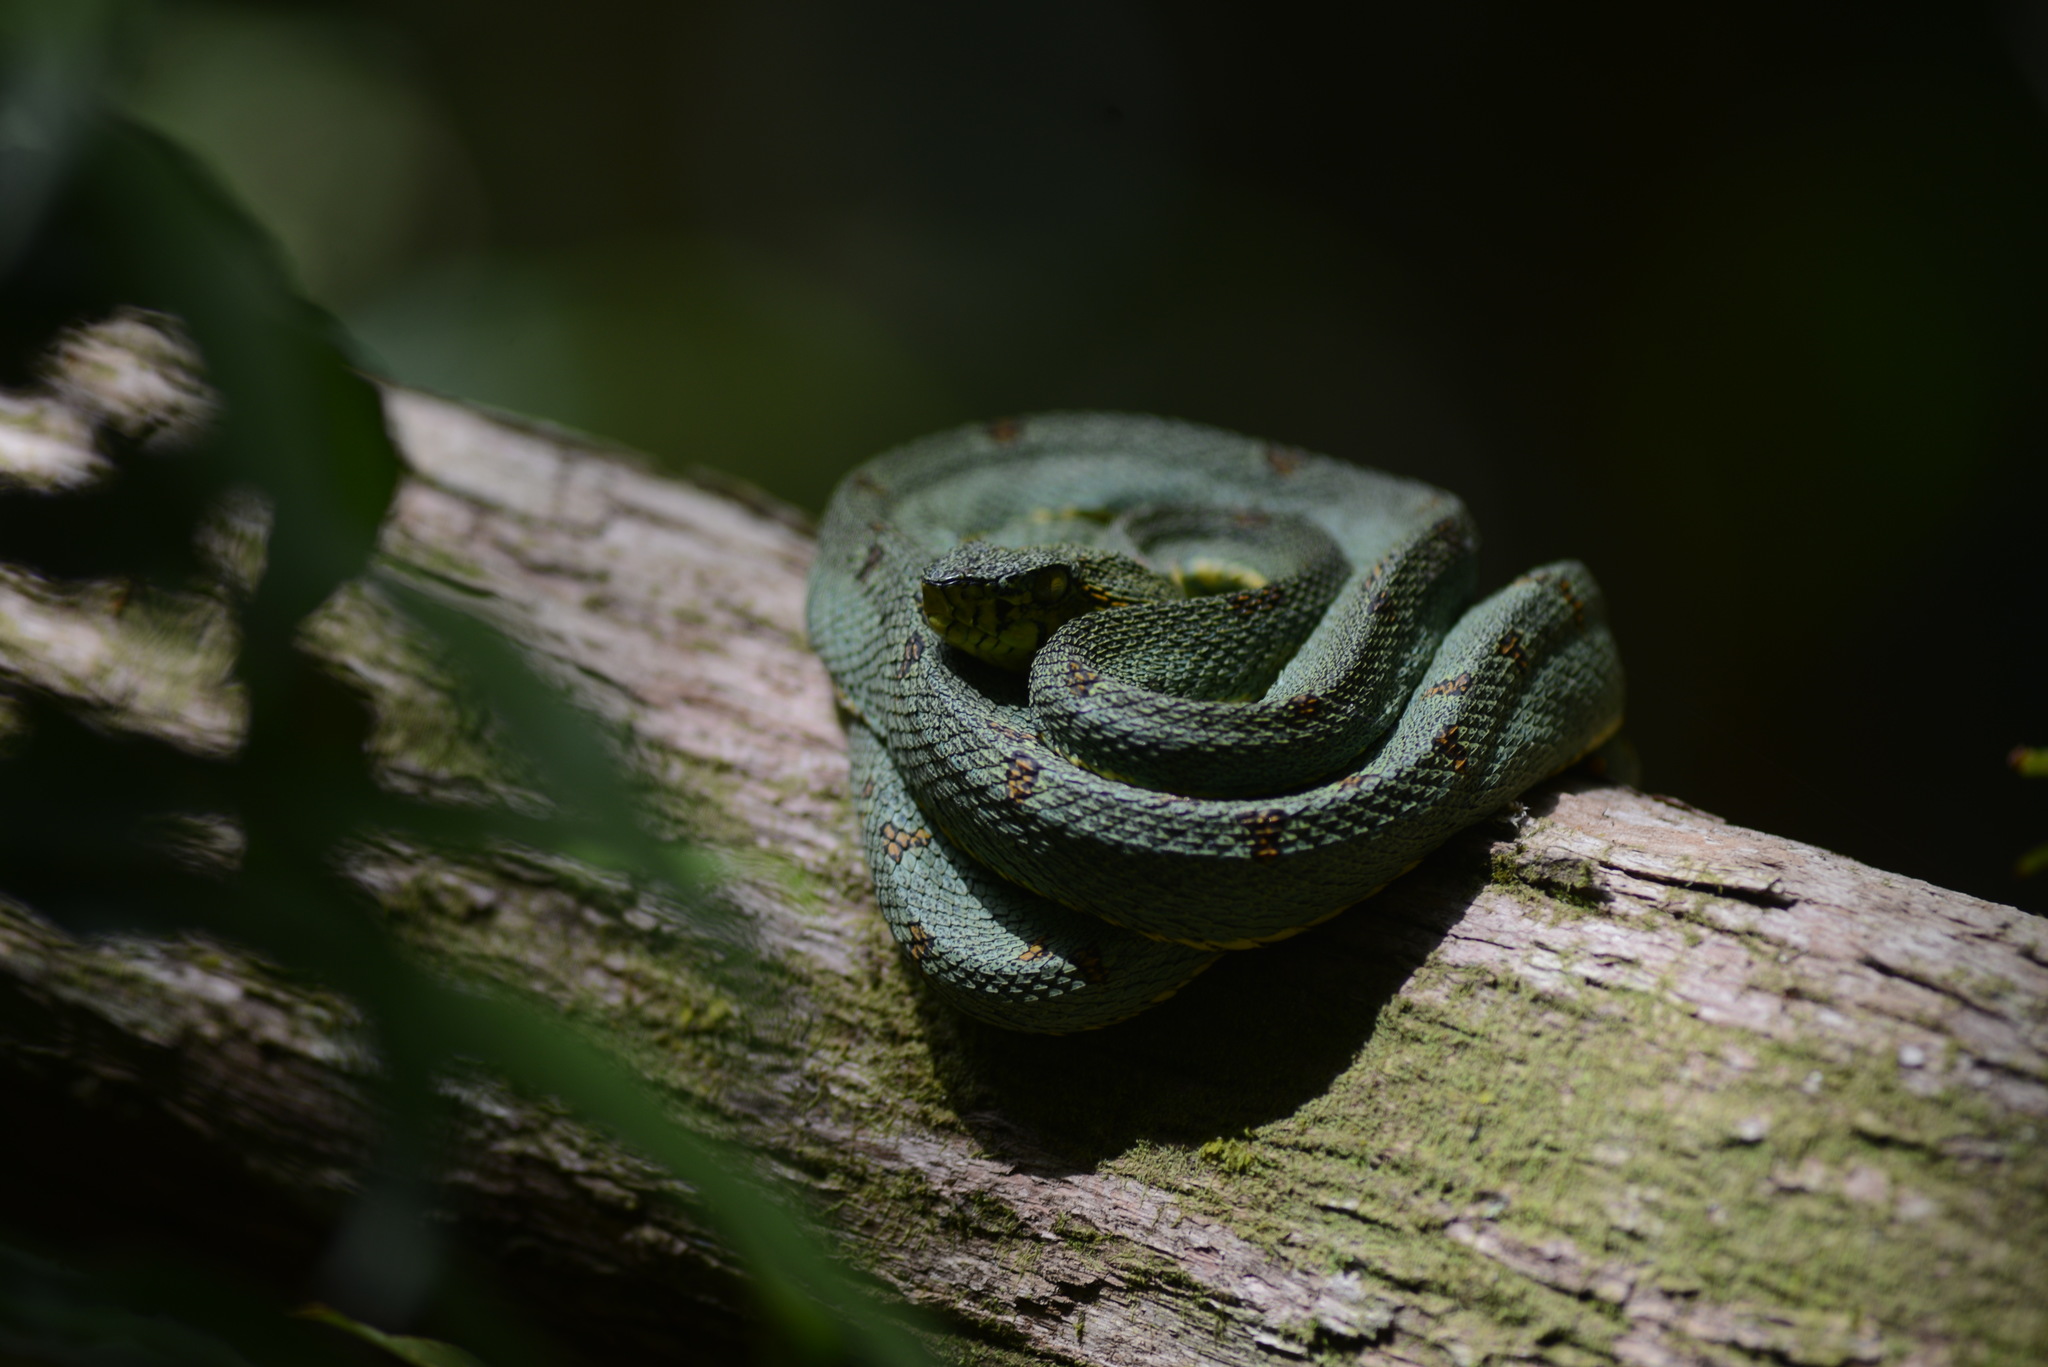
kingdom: Animalia
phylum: Chordata
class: Squamata
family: Viperidae
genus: Bothrops
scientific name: Bothrops bilineatus
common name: Green jararaca
